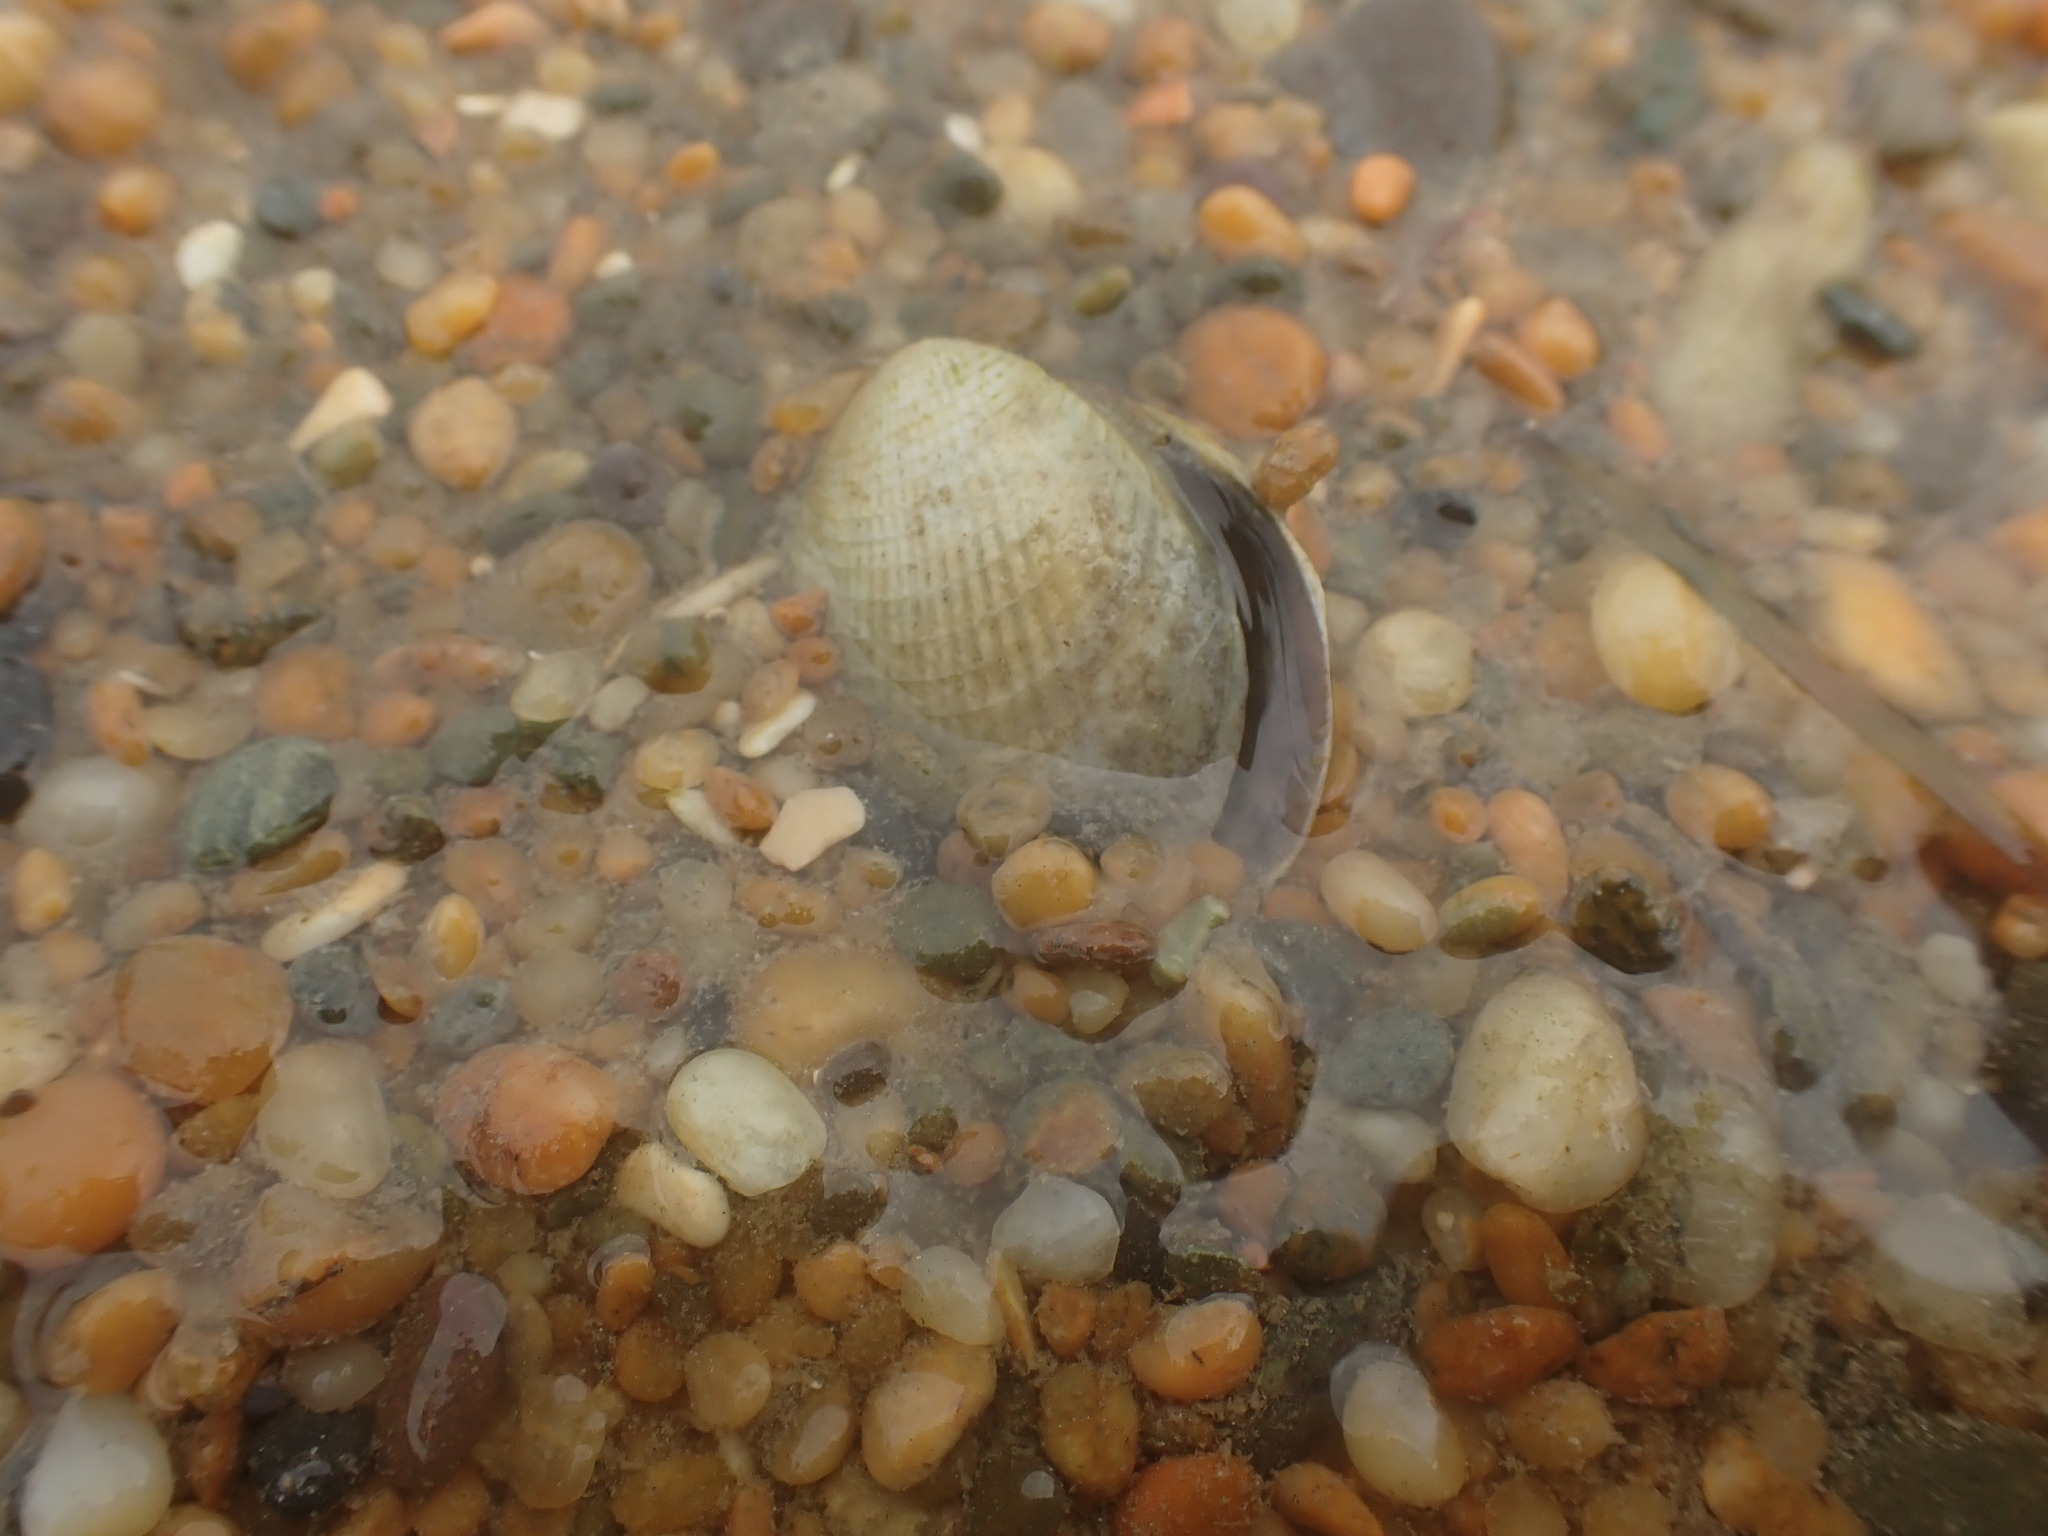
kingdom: Animalia
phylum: Mollusca
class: Bivalvia
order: Venerida
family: Veneridae
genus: Austrovenus
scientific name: Austrovenus stutchburyi
